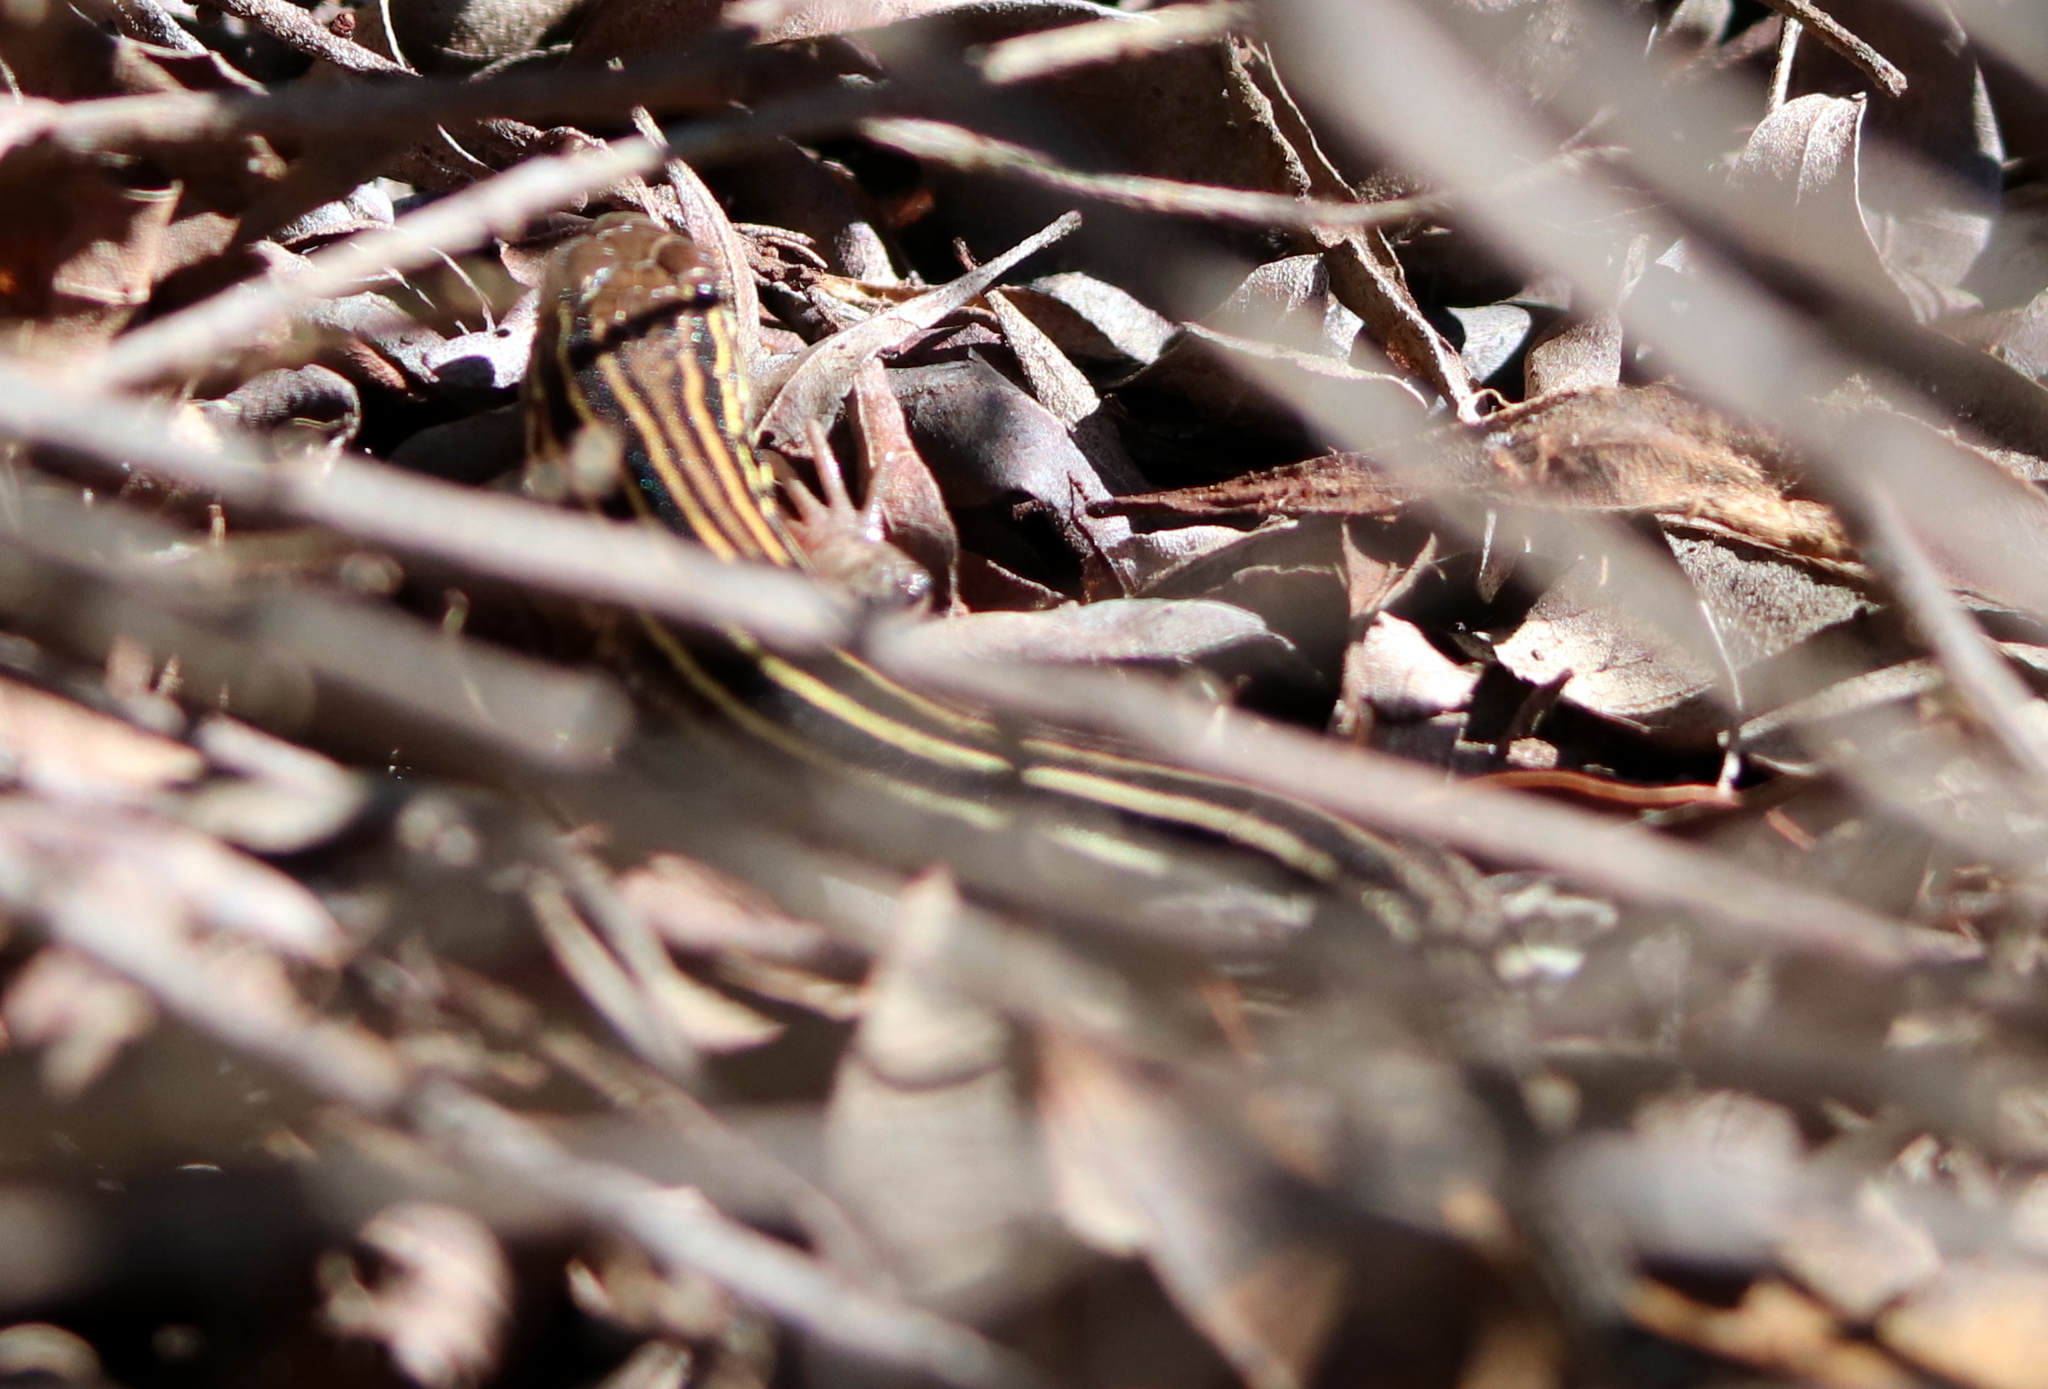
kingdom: Animalia
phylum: Chordata
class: Squamata
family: Teiidae
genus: Aspidoscelis
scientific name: Aspidoscelis sexlineatus
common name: Six-lined racerunner
